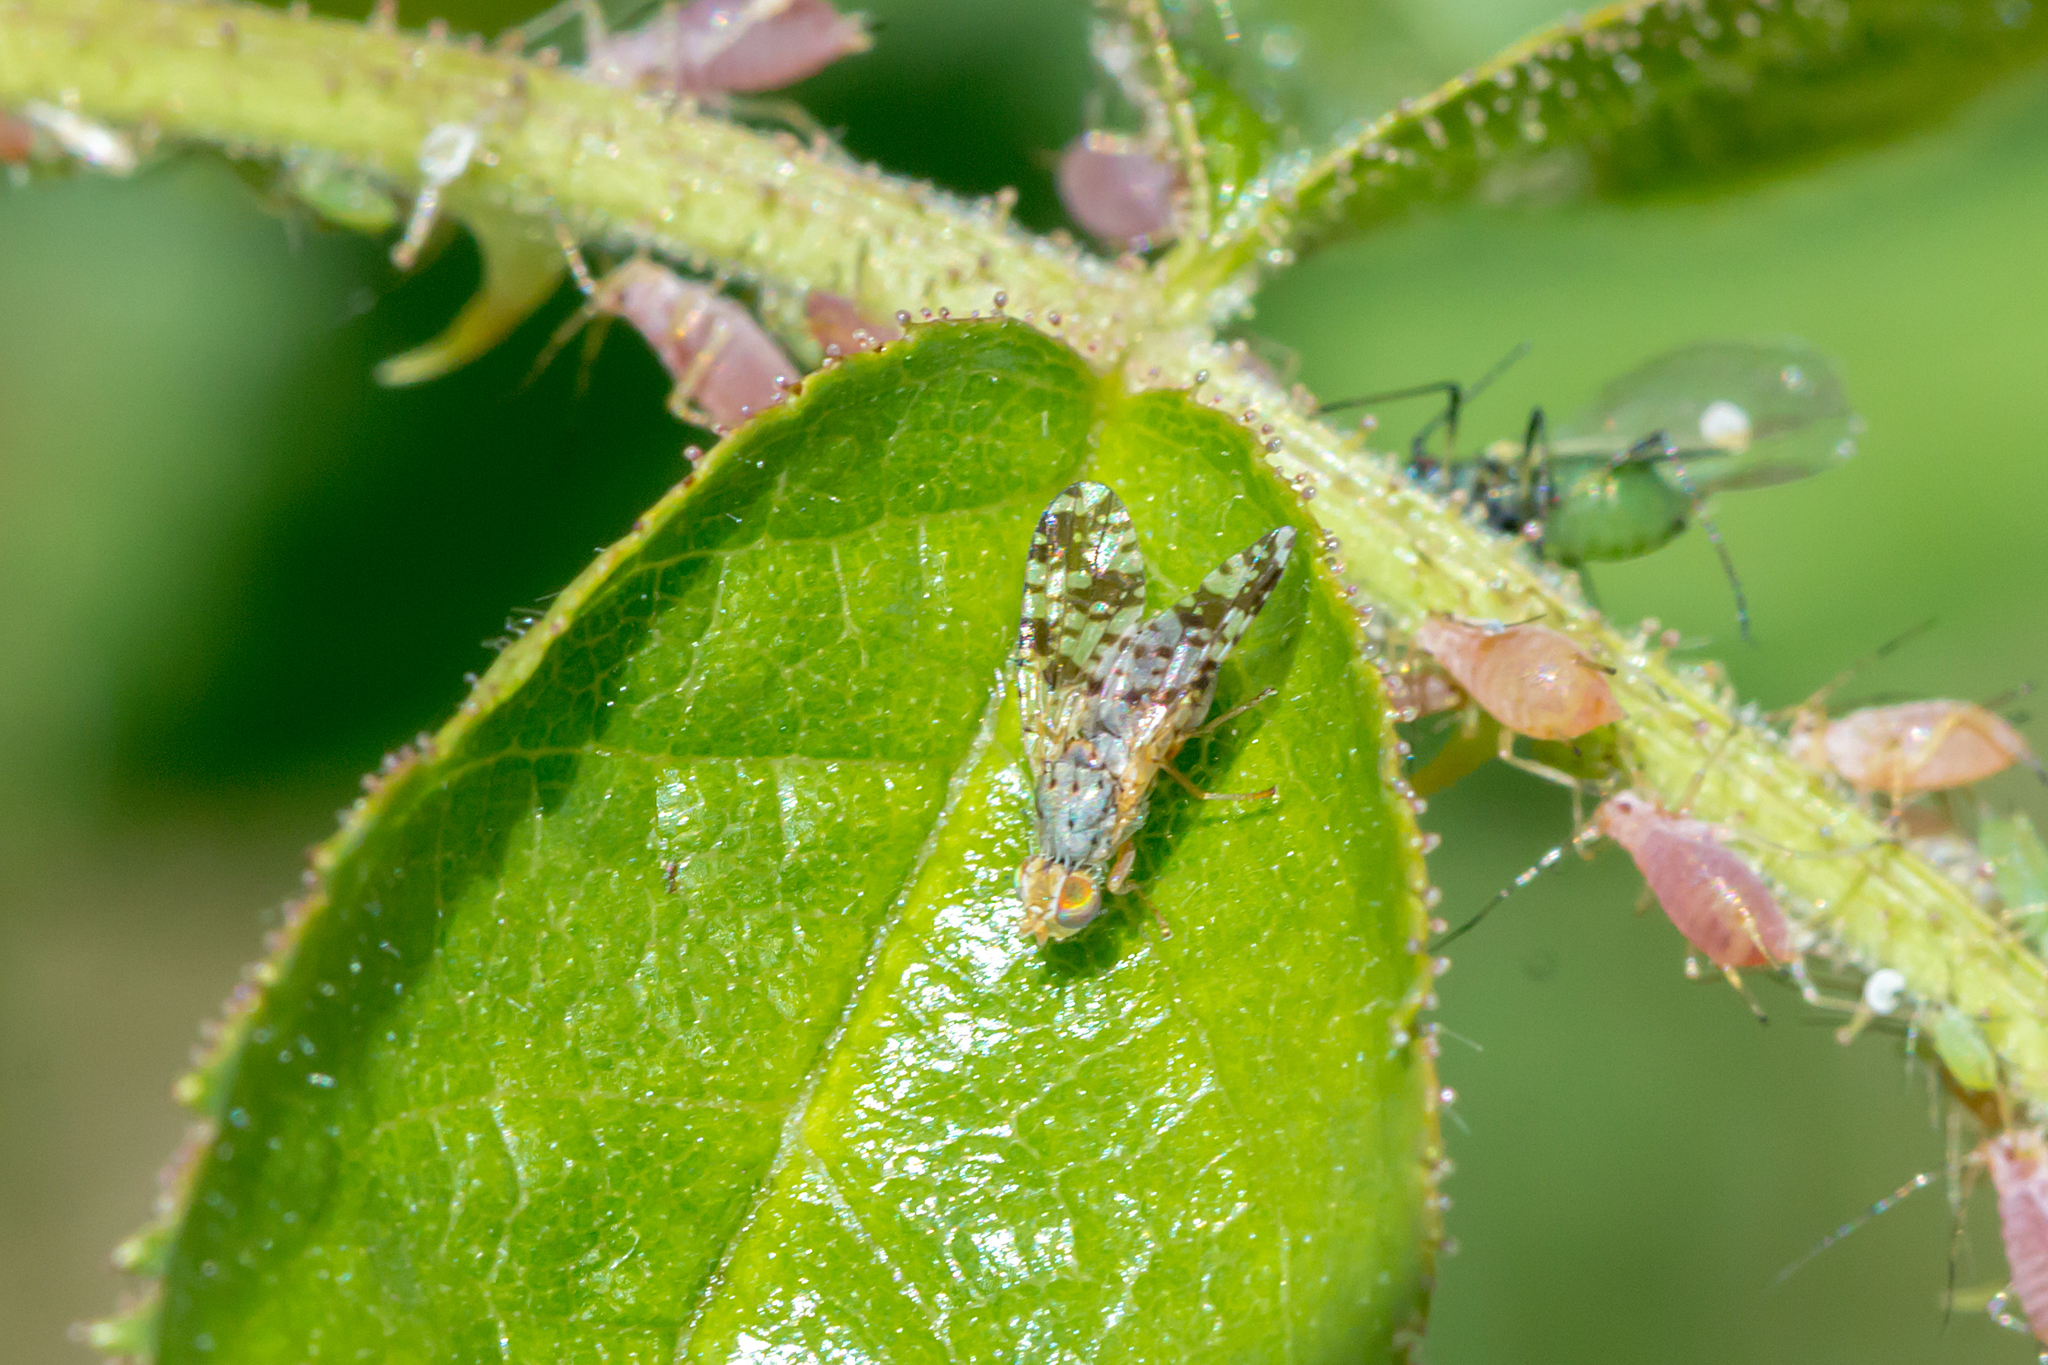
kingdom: Animalia
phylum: Arthropoda
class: Insecta
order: Diptera
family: Tephritidae
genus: Austrotephritis
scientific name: Austrotephritis
